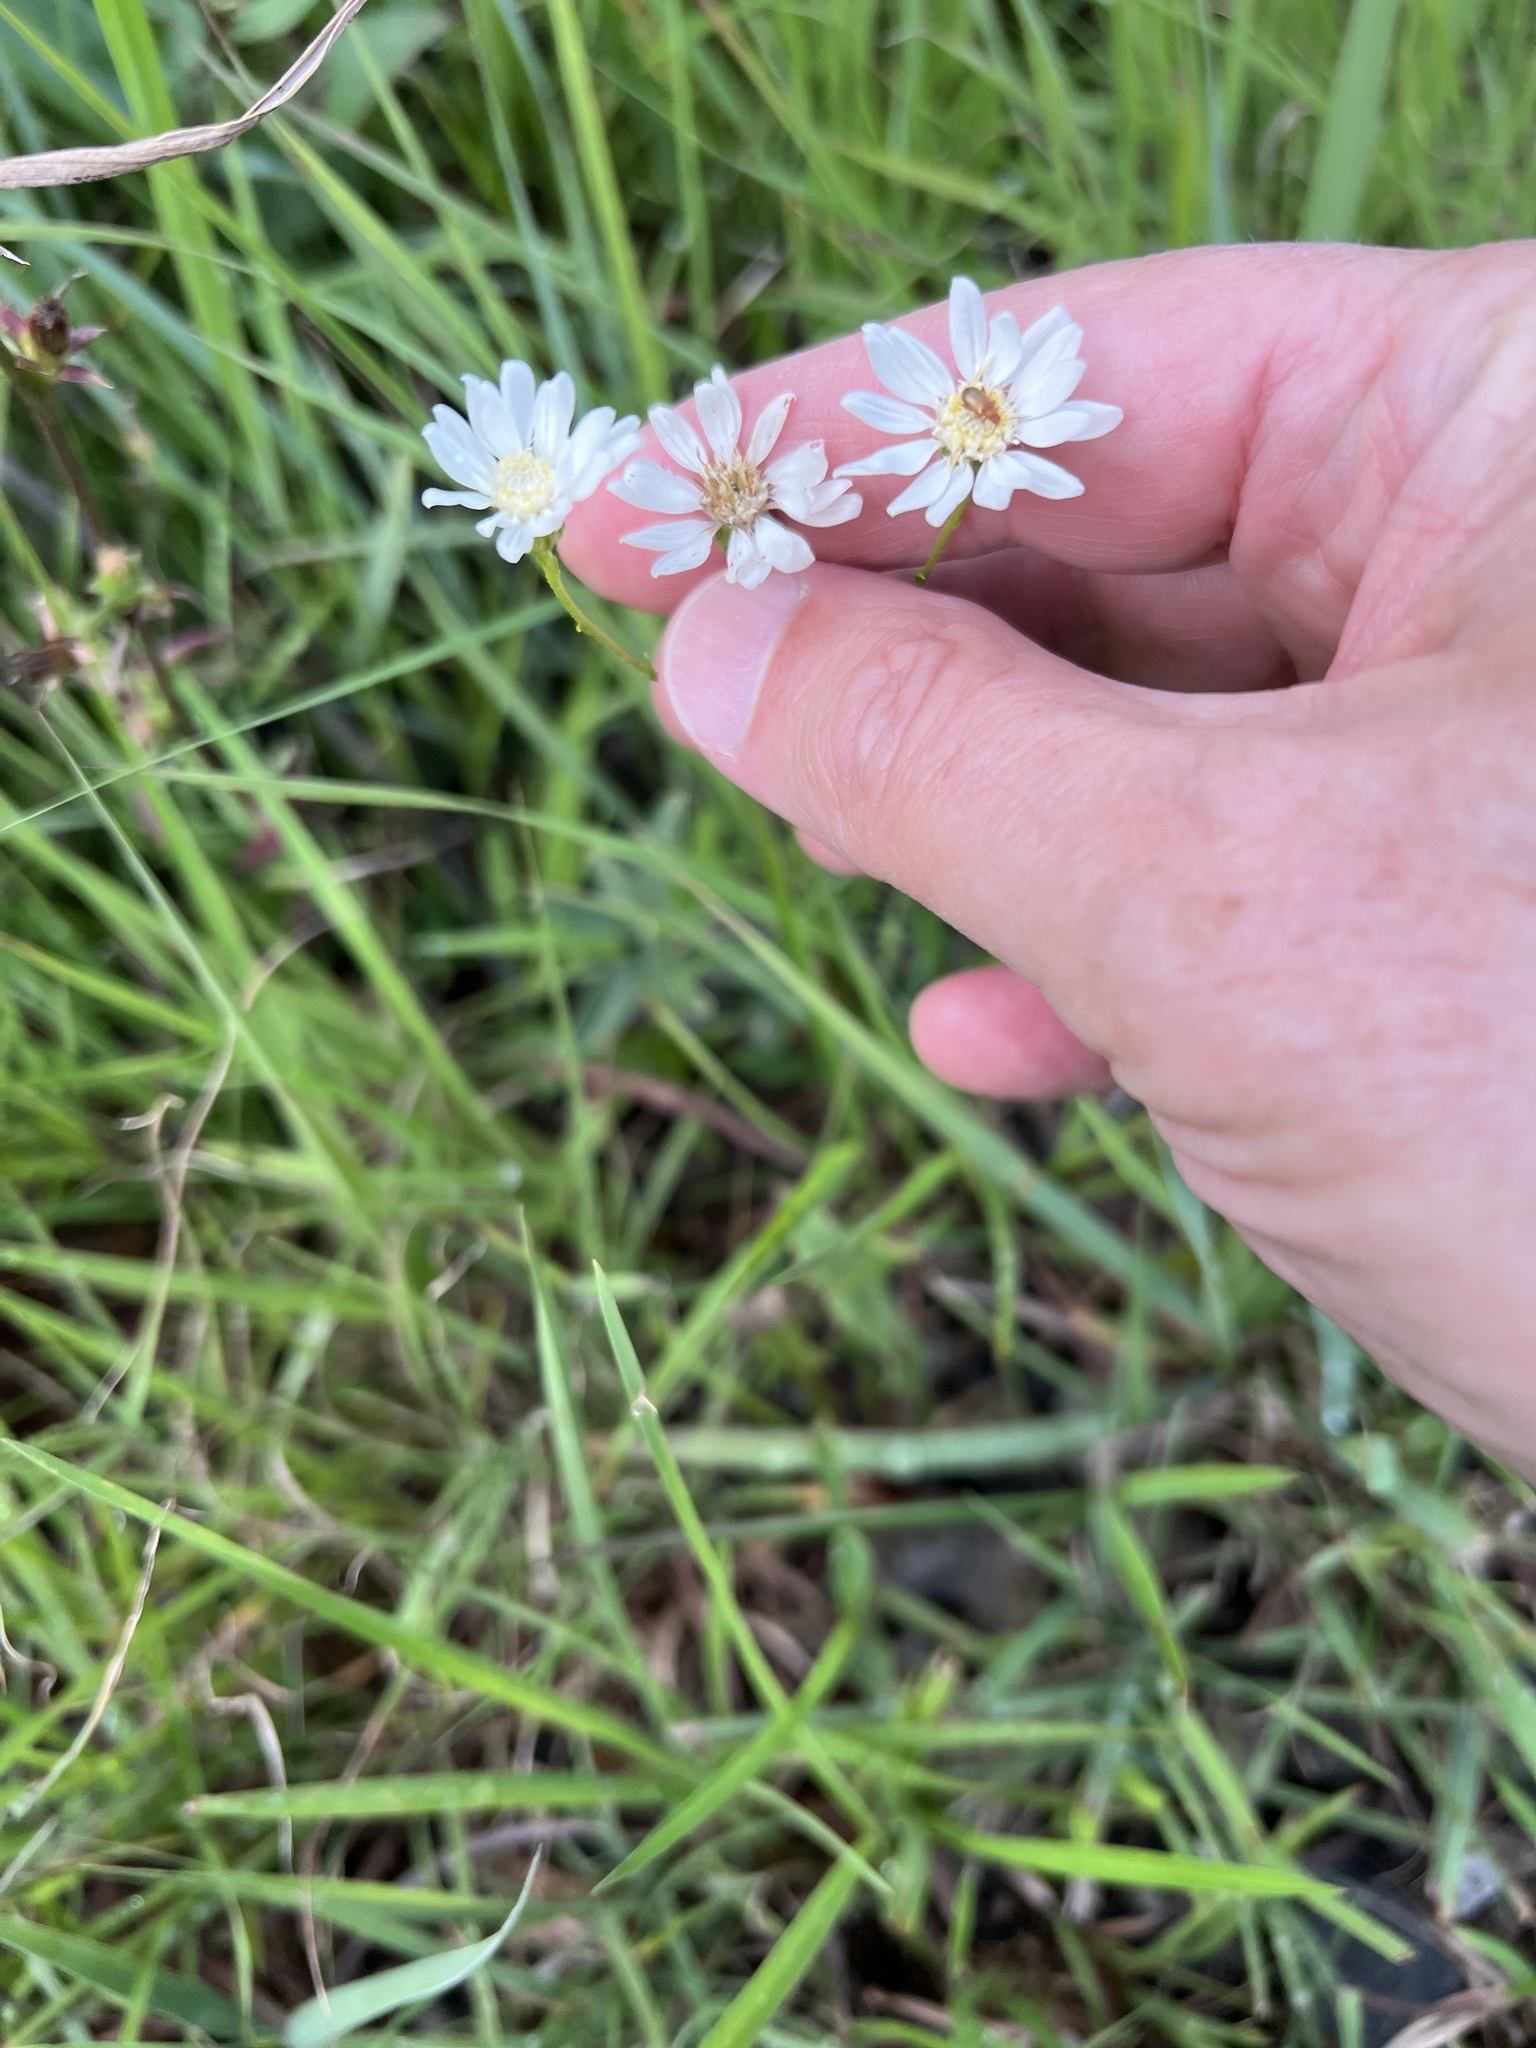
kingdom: Plantae
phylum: Tracheophyta
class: Magnoliopsida
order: Asterales
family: Asteraceae
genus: Solidago
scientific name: Solidago ptarmicoides
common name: White flat-top goldenrod
